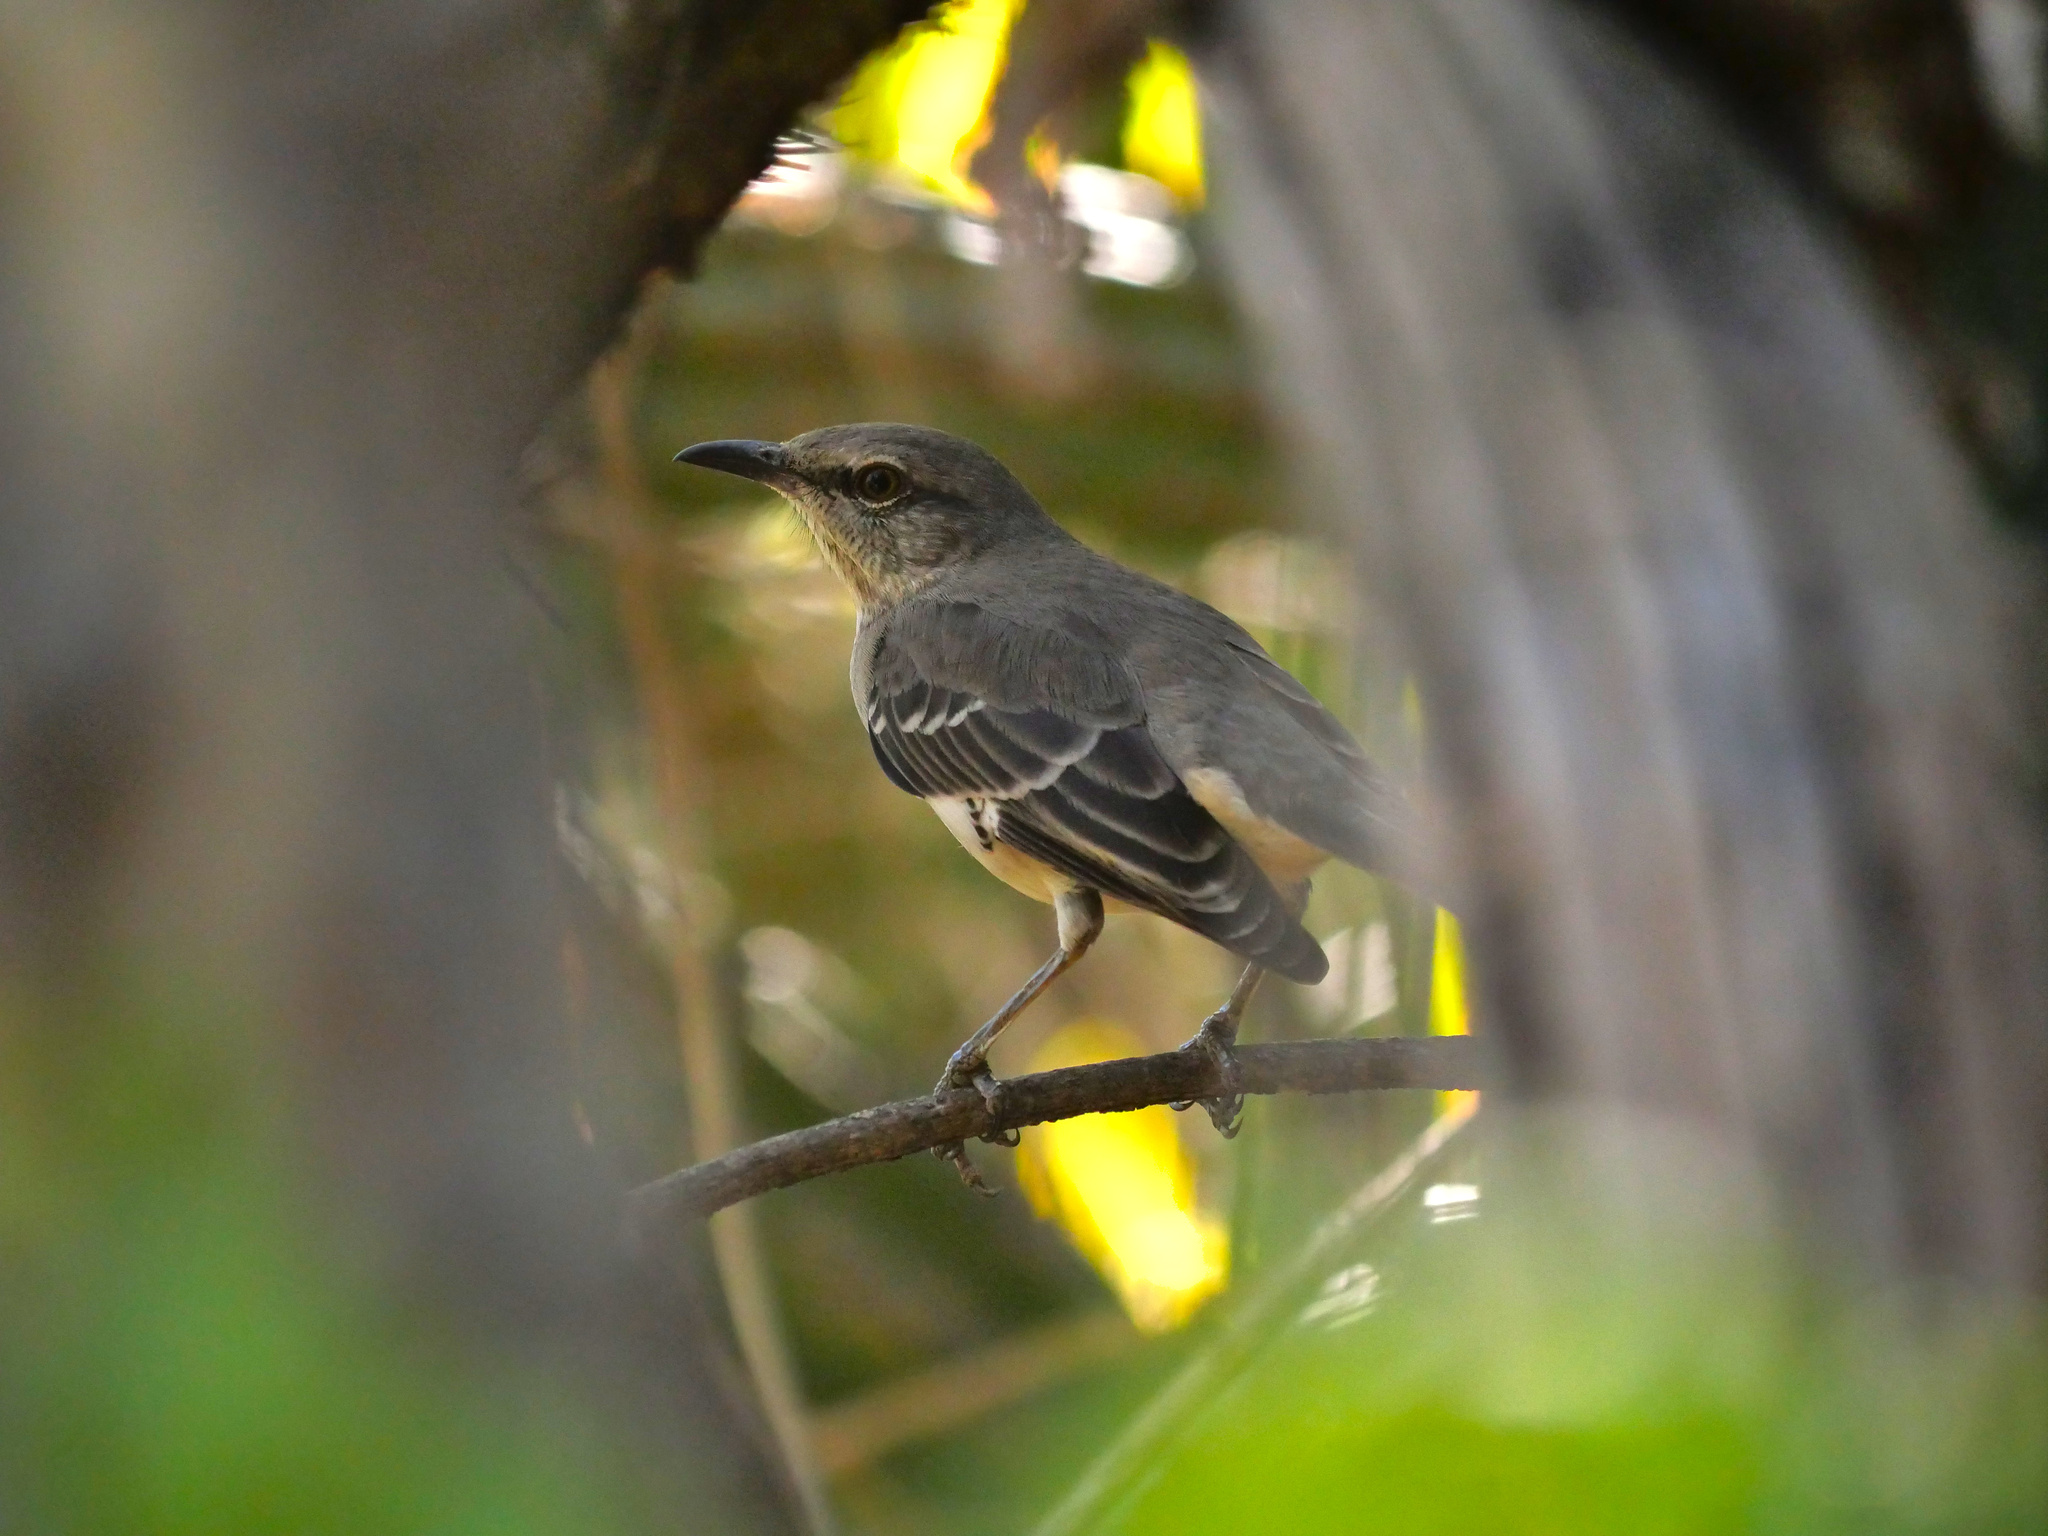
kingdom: Animalia
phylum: Chordata
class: Aves
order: Passeriformes
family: Mimidae
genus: Mimus
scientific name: Mimus polyglottos
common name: Northern mockingbird
